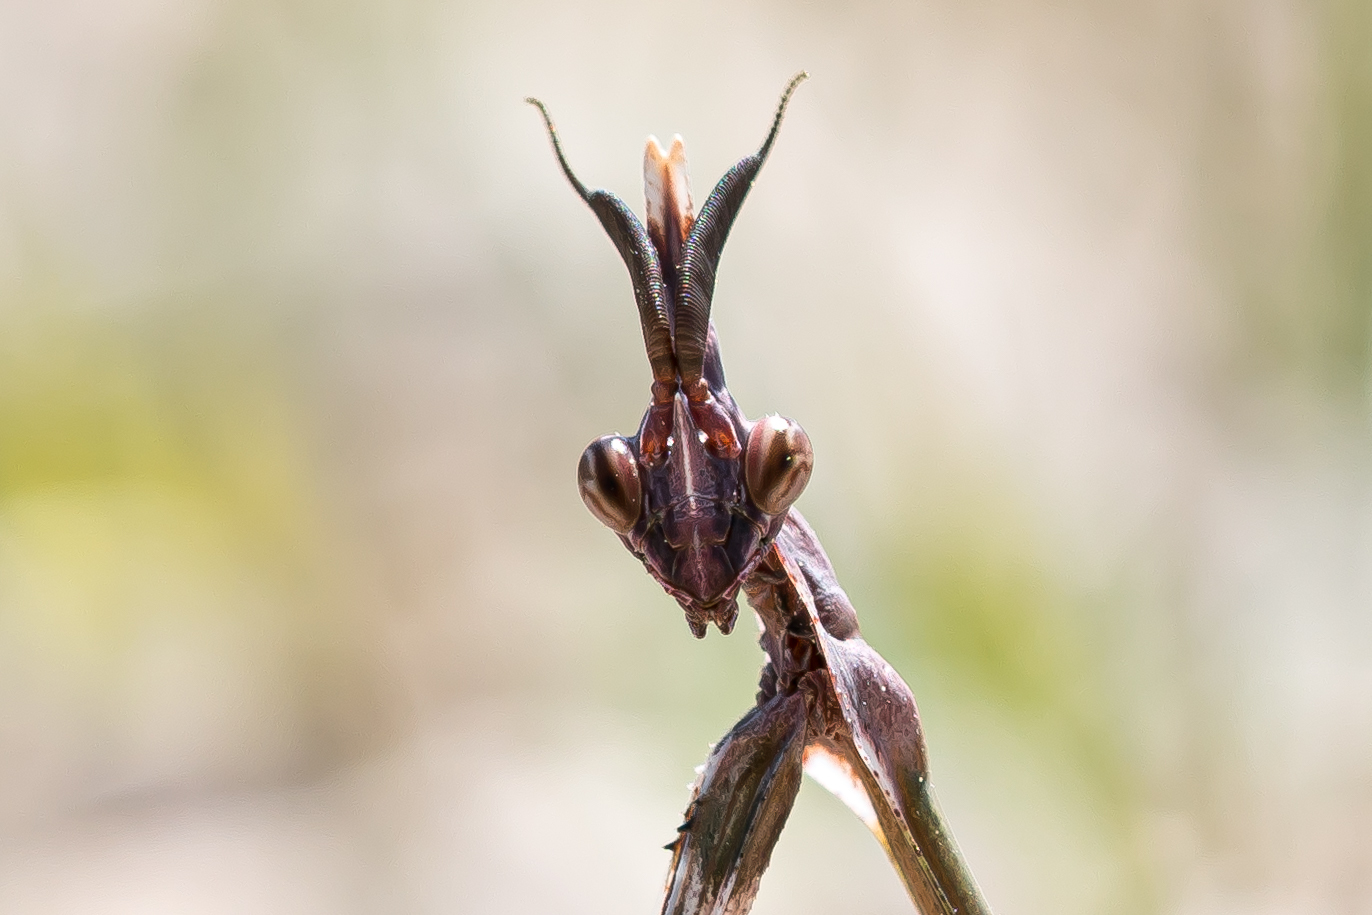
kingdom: Animalia
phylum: Arthropoda
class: Insecta
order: Mantodea
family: Empusidae
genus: Empusa
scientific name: Empusa fasciata
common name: Devil's mare
